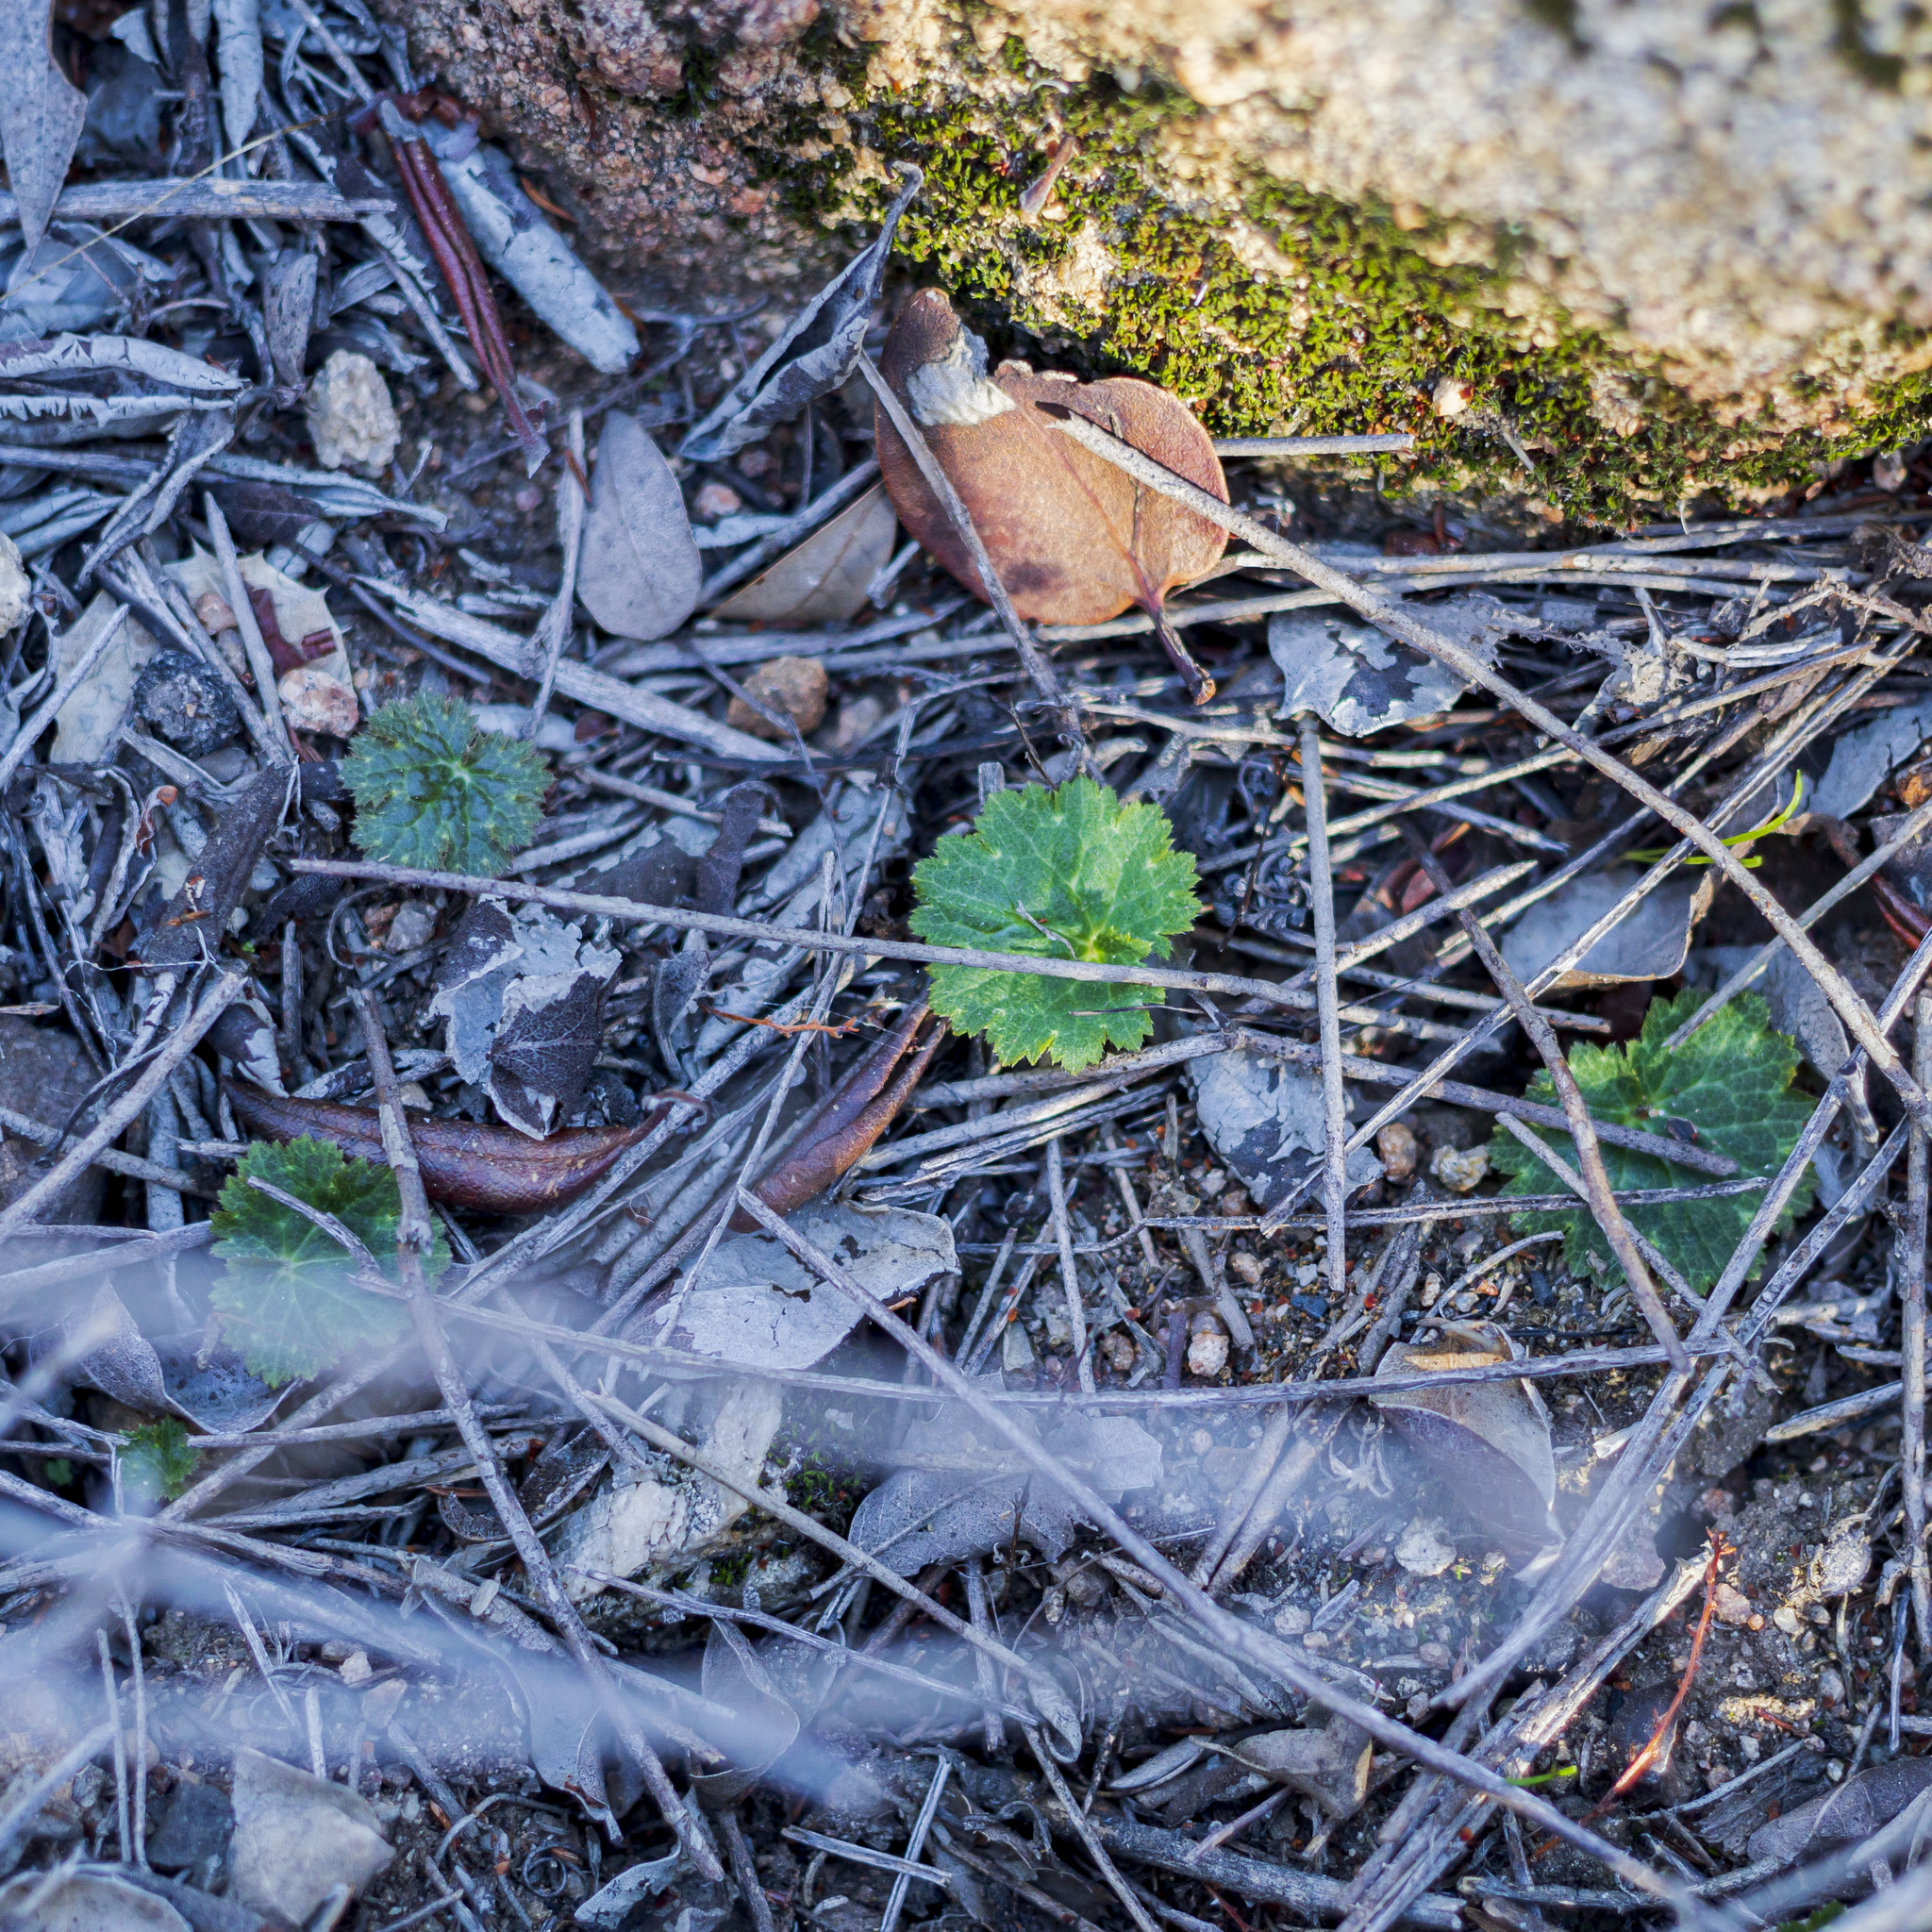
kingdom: Plantae
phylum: Tracheophyta
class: Magnoliopsida
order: Saxifragales
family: Saxifragaceae
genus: Jepsonia
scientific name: Jepsonia parryi
